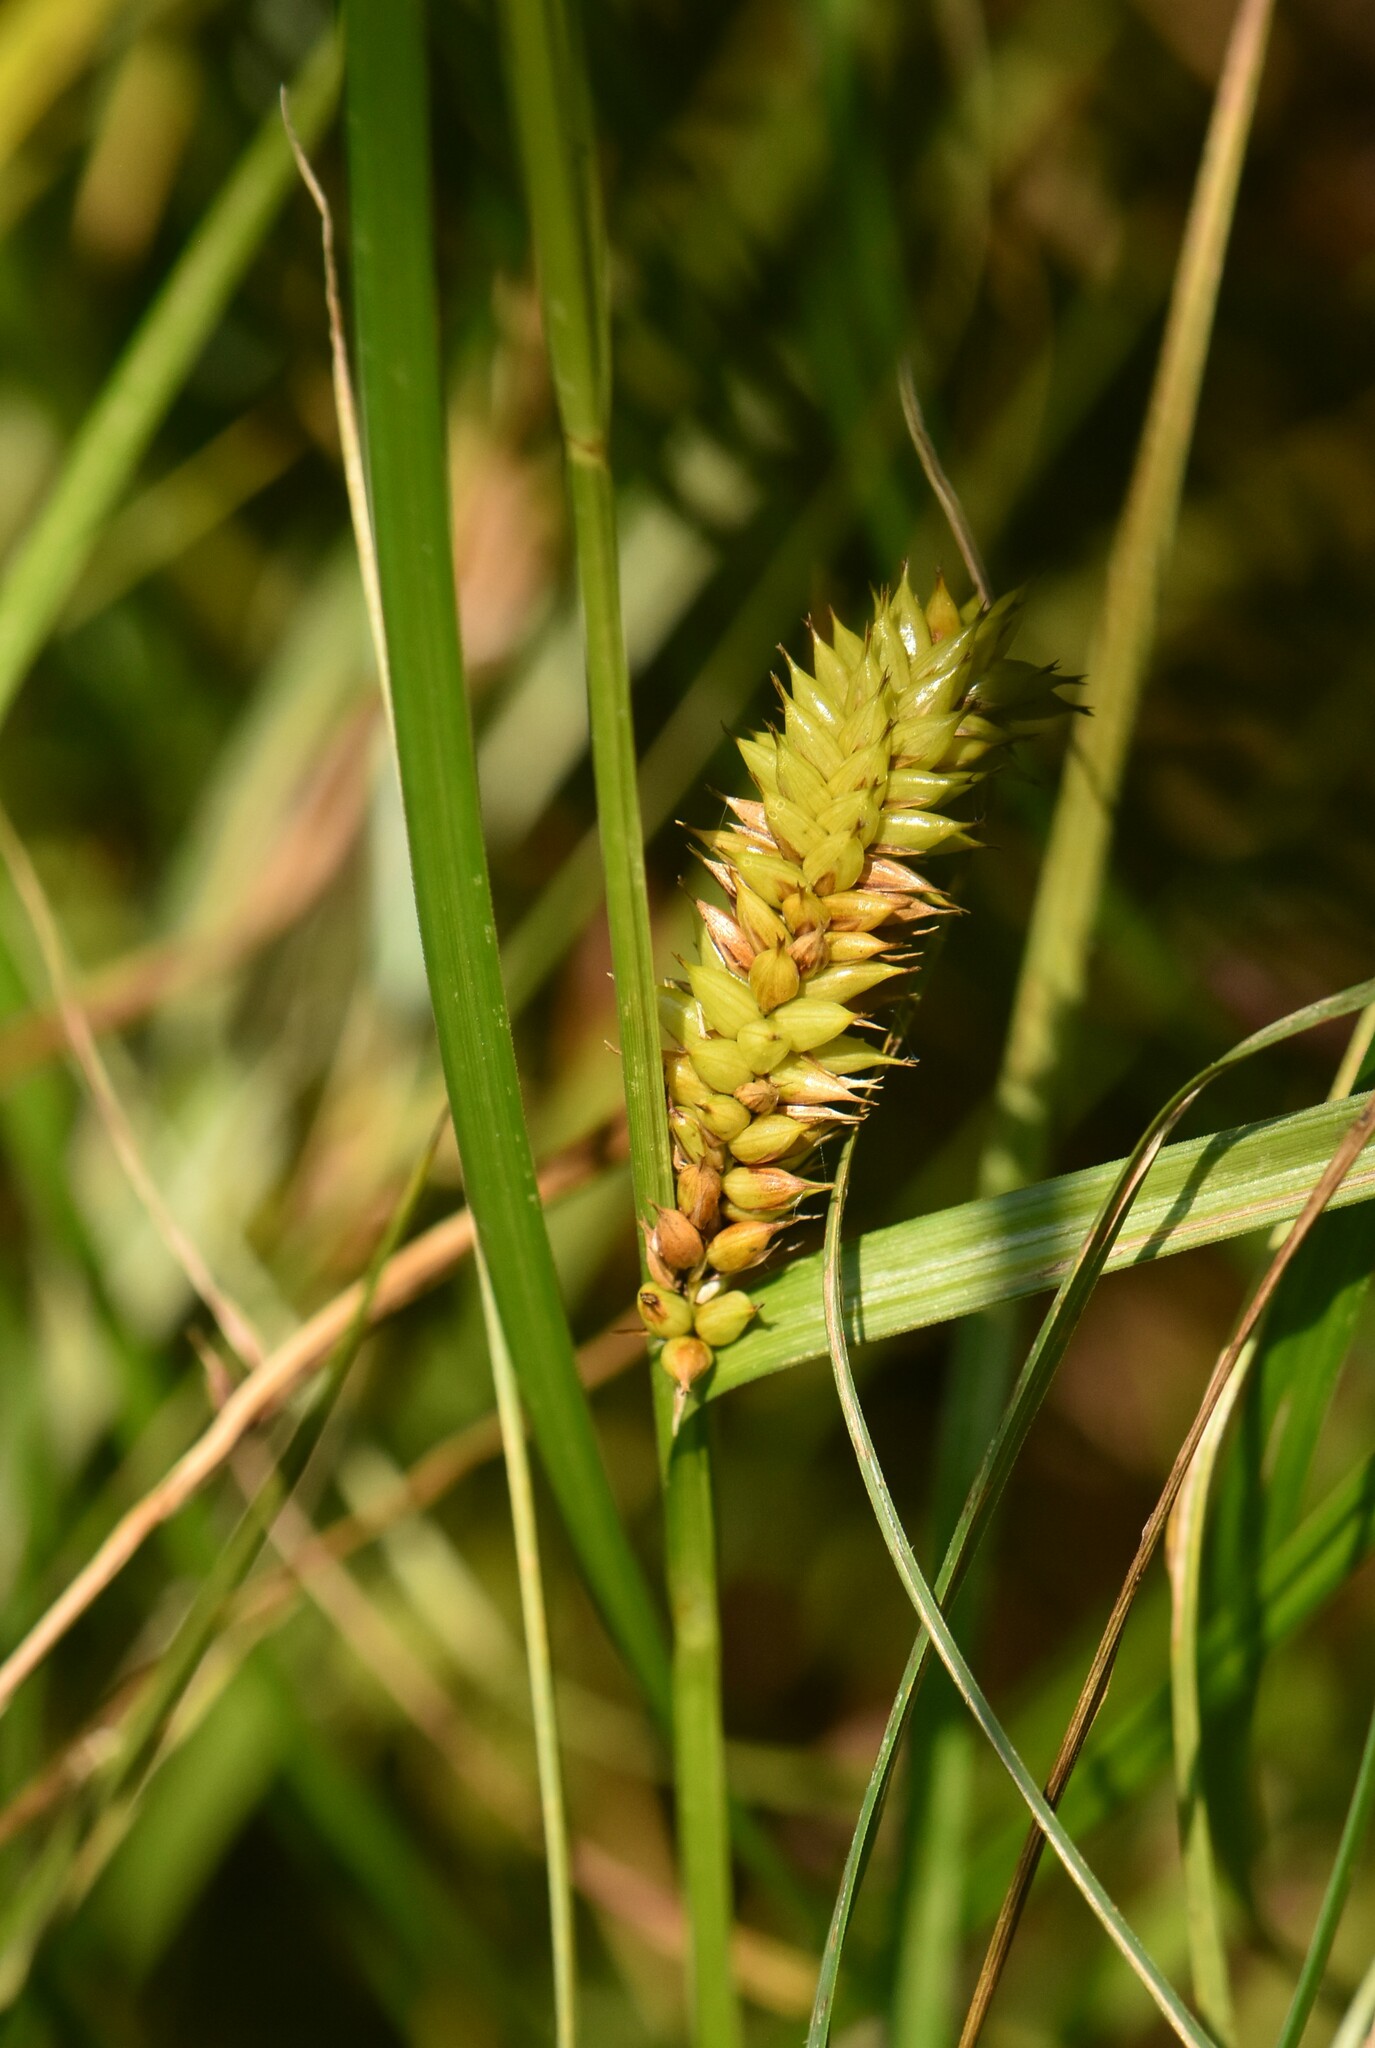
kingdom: Plantae
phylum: Tracheophyta
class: Liliopsida
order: Poales
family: Cyperaceae
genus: Carex
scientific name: Carex vesicaria
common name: Bladder-sedge
